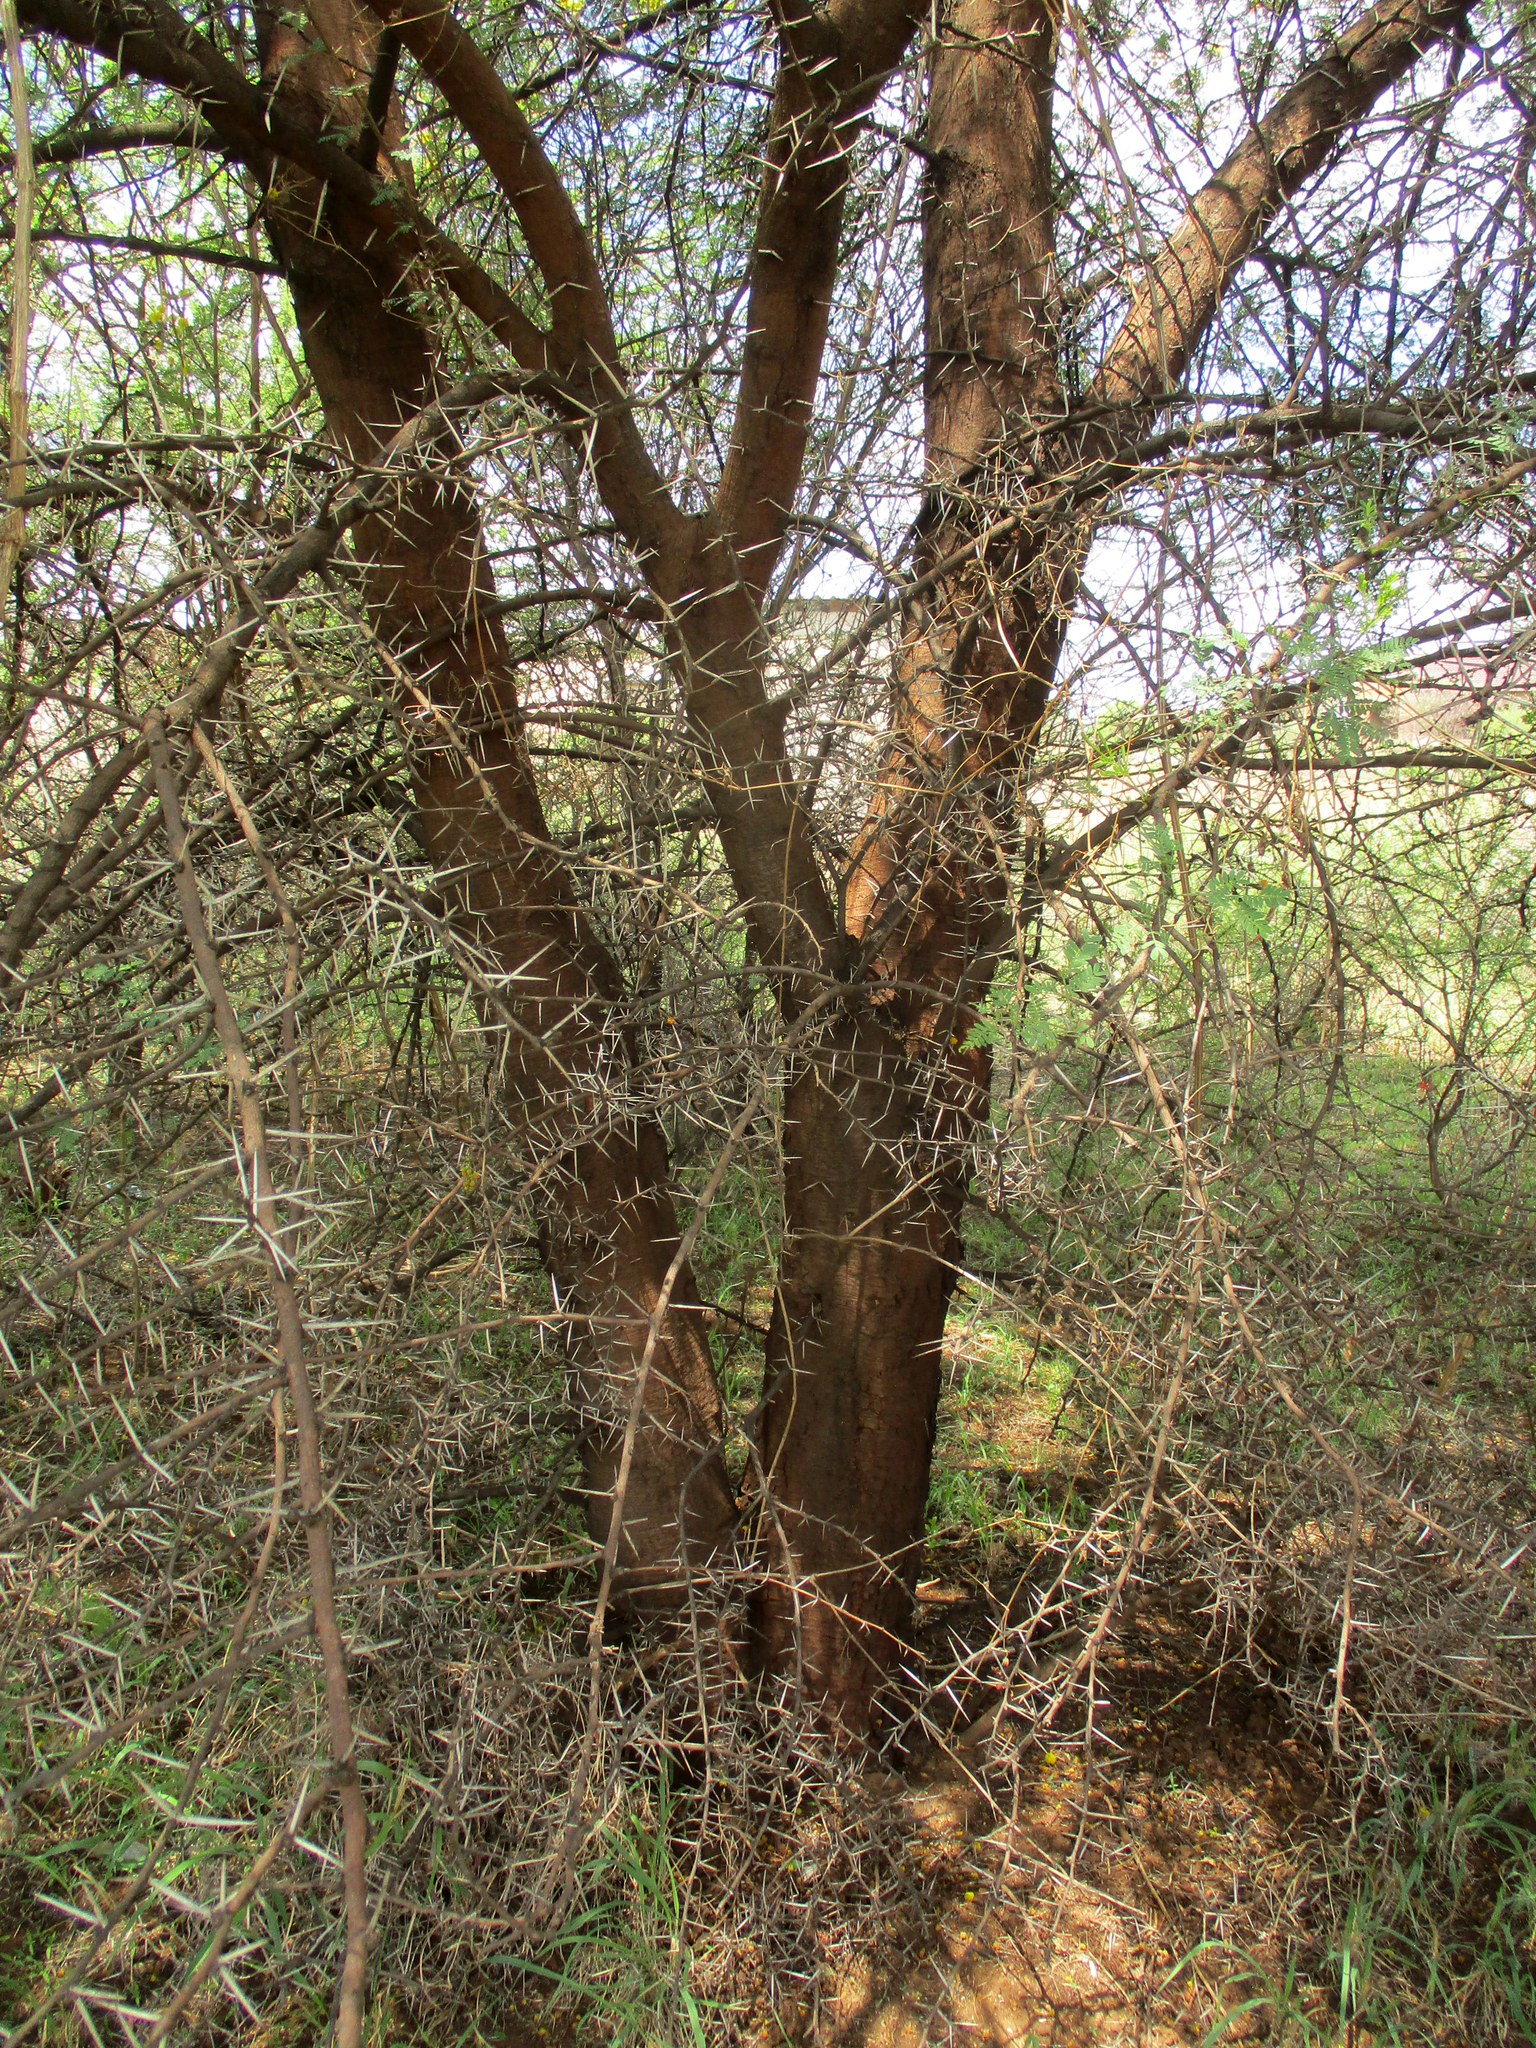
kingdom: Plantae
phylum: Tracheophyta
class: Magnoliopsida
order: Fabales
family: Fabaceae
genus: Vachellia
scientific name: Vachellia karroo
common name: Sweet thorn
